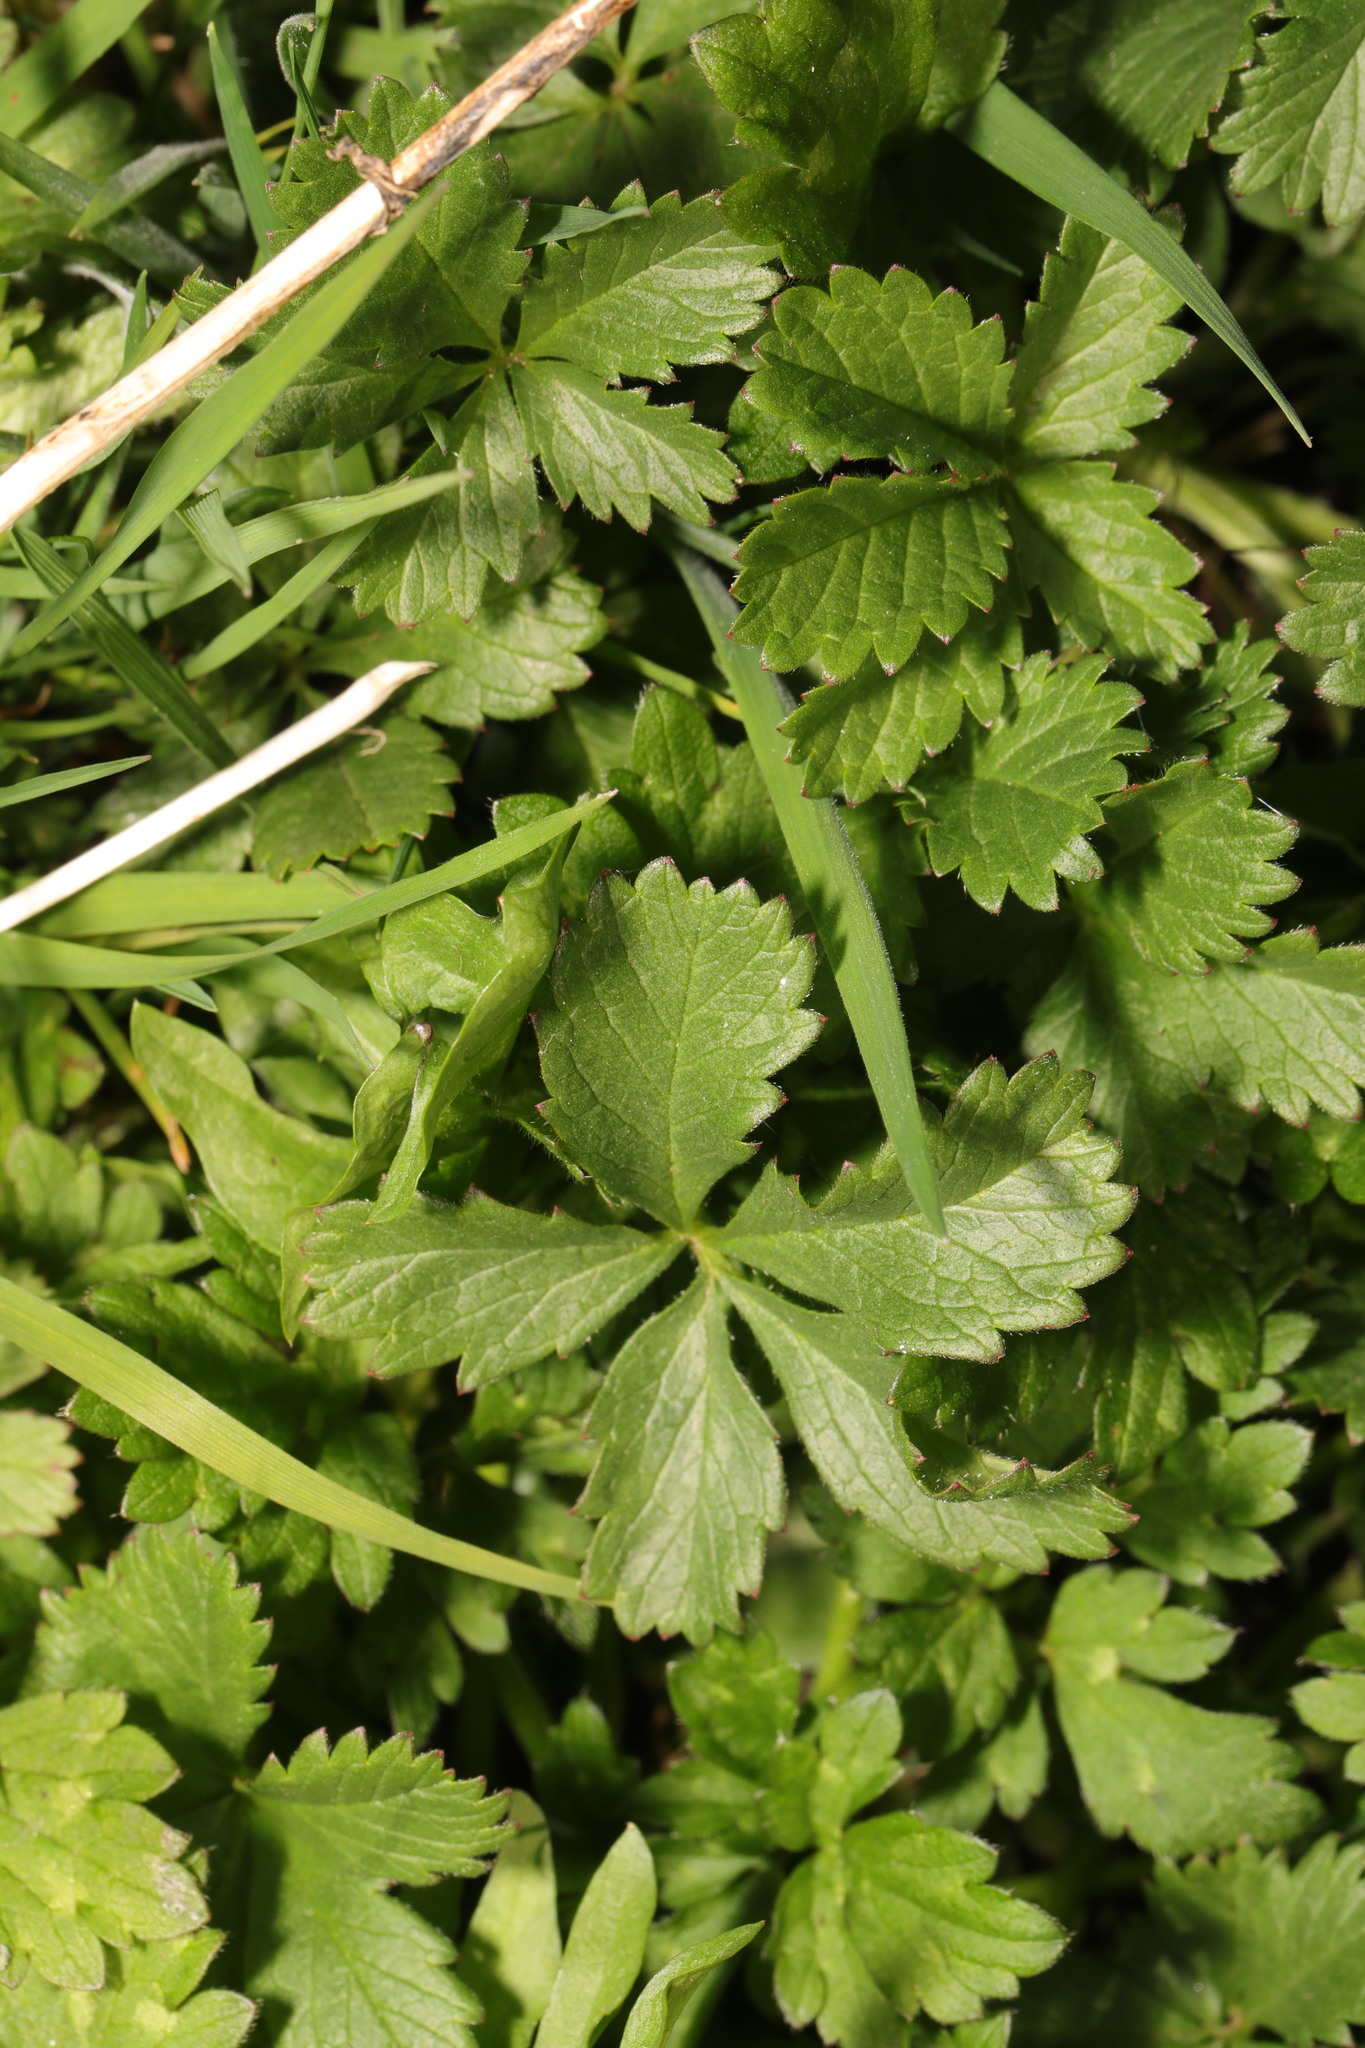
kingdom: Plantae
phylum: Tracheophyta
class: Magnoliopsida
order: Rosales
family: Rosaceae
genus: Potentilla
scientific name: Potentilla reptans
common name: Creeping cinquefoil
